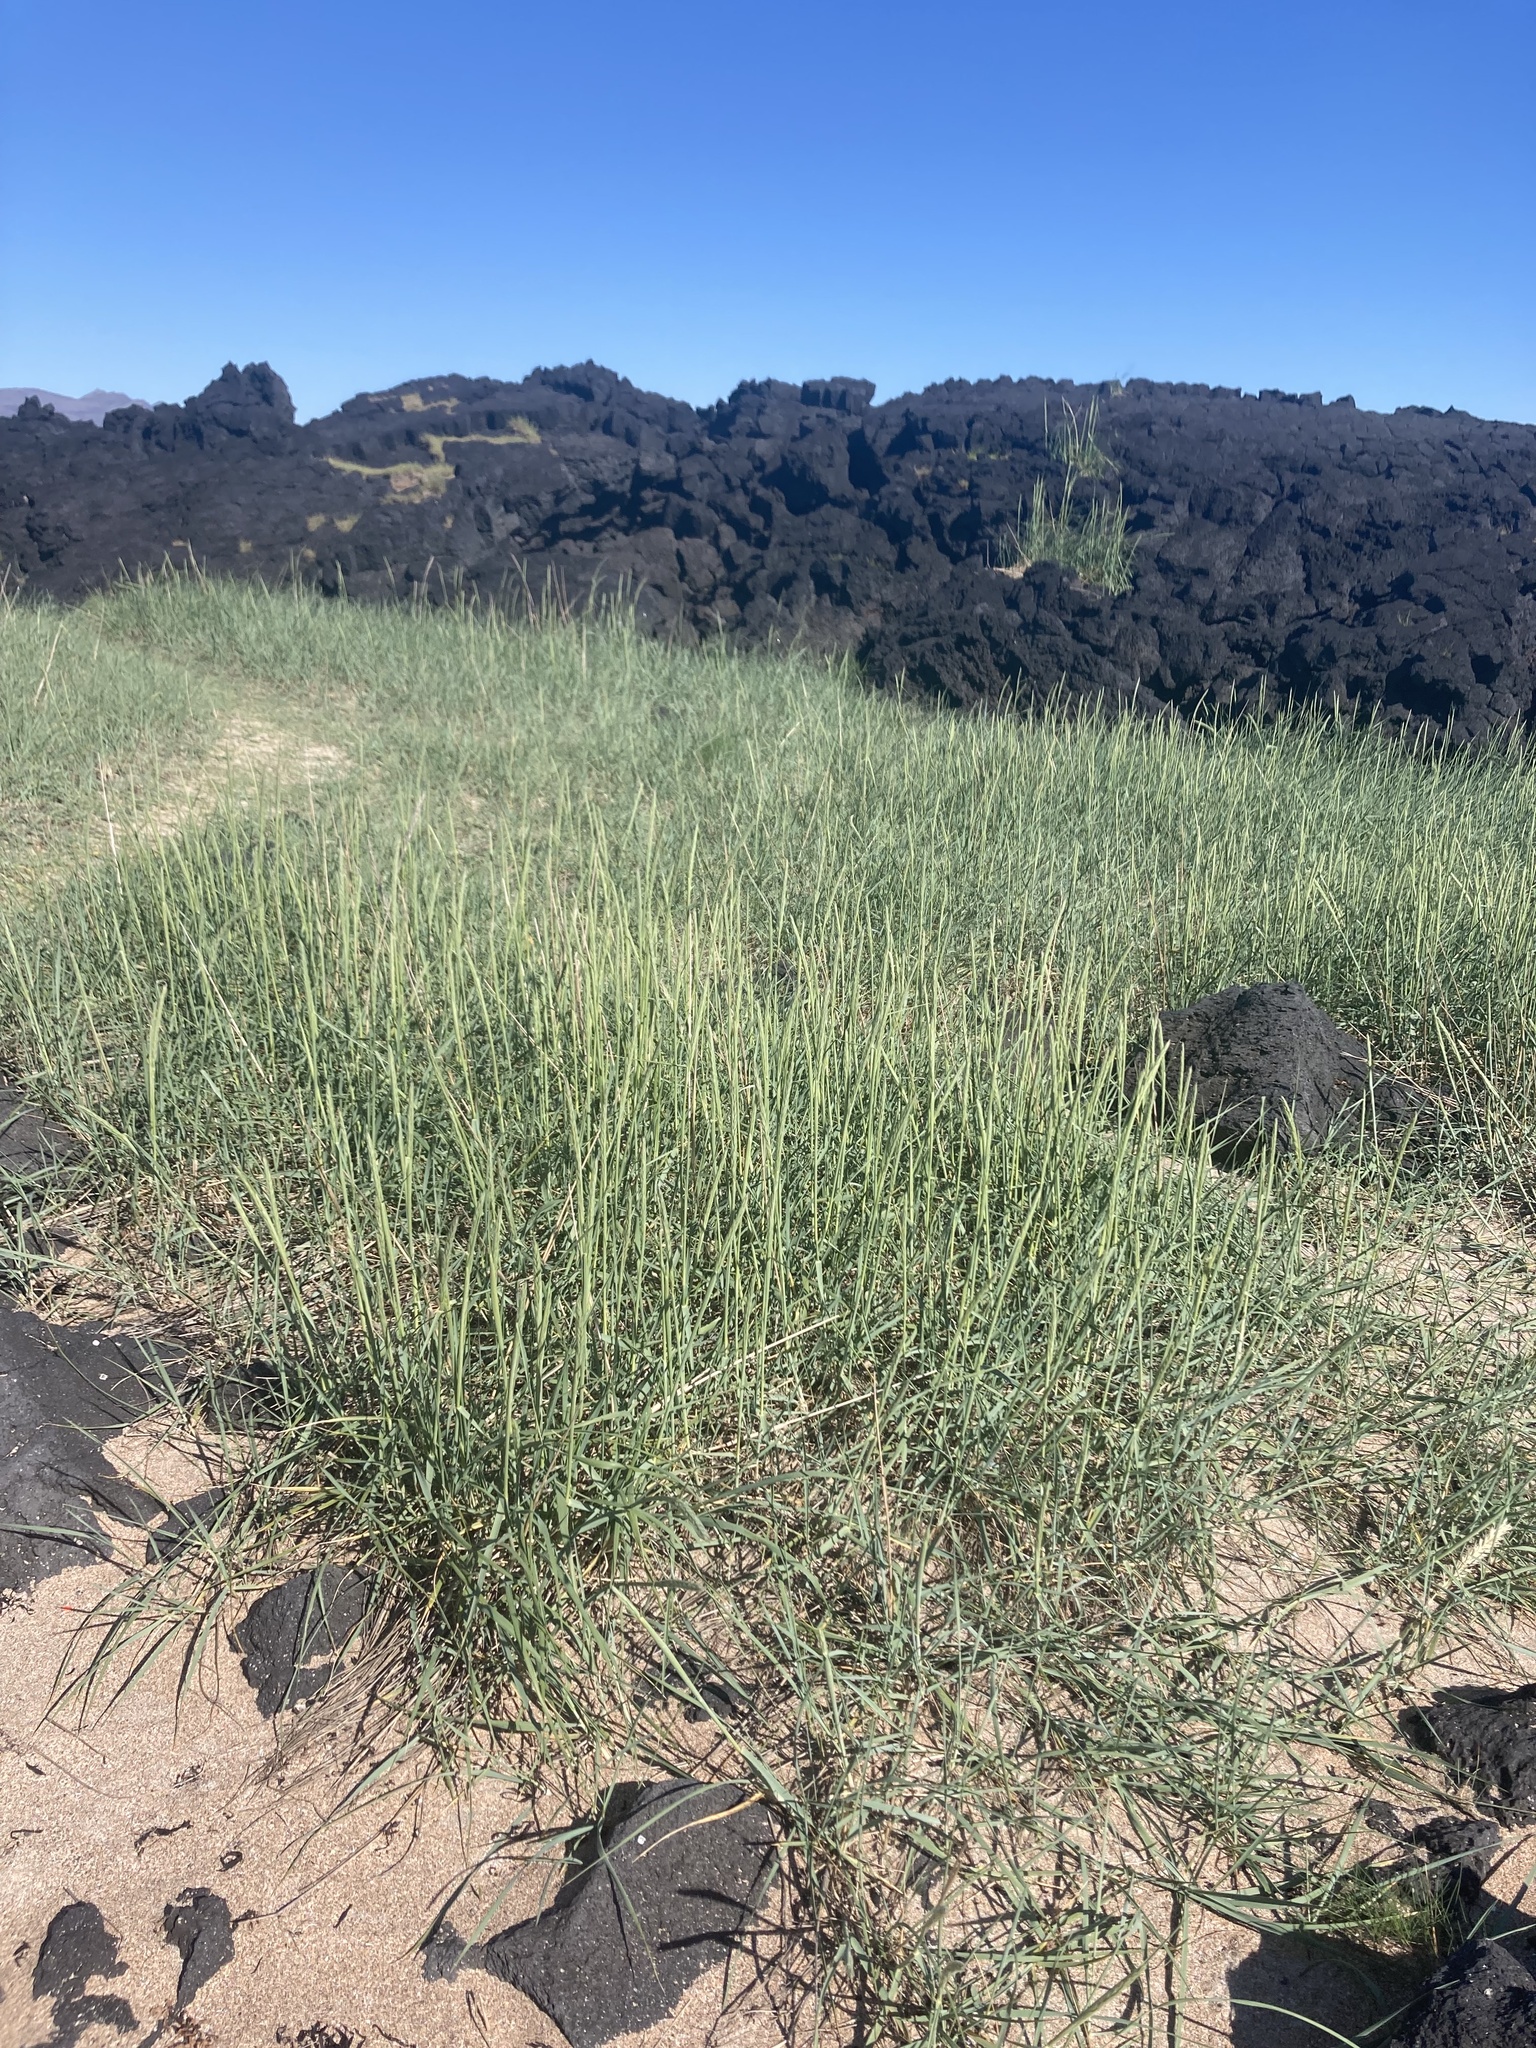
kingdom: Plantae
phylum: Tracheophyta
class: Liliopsida
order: Poales
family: Poaceae
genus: Leymus
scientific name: Leymus arenarius
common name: Lyme-grass
